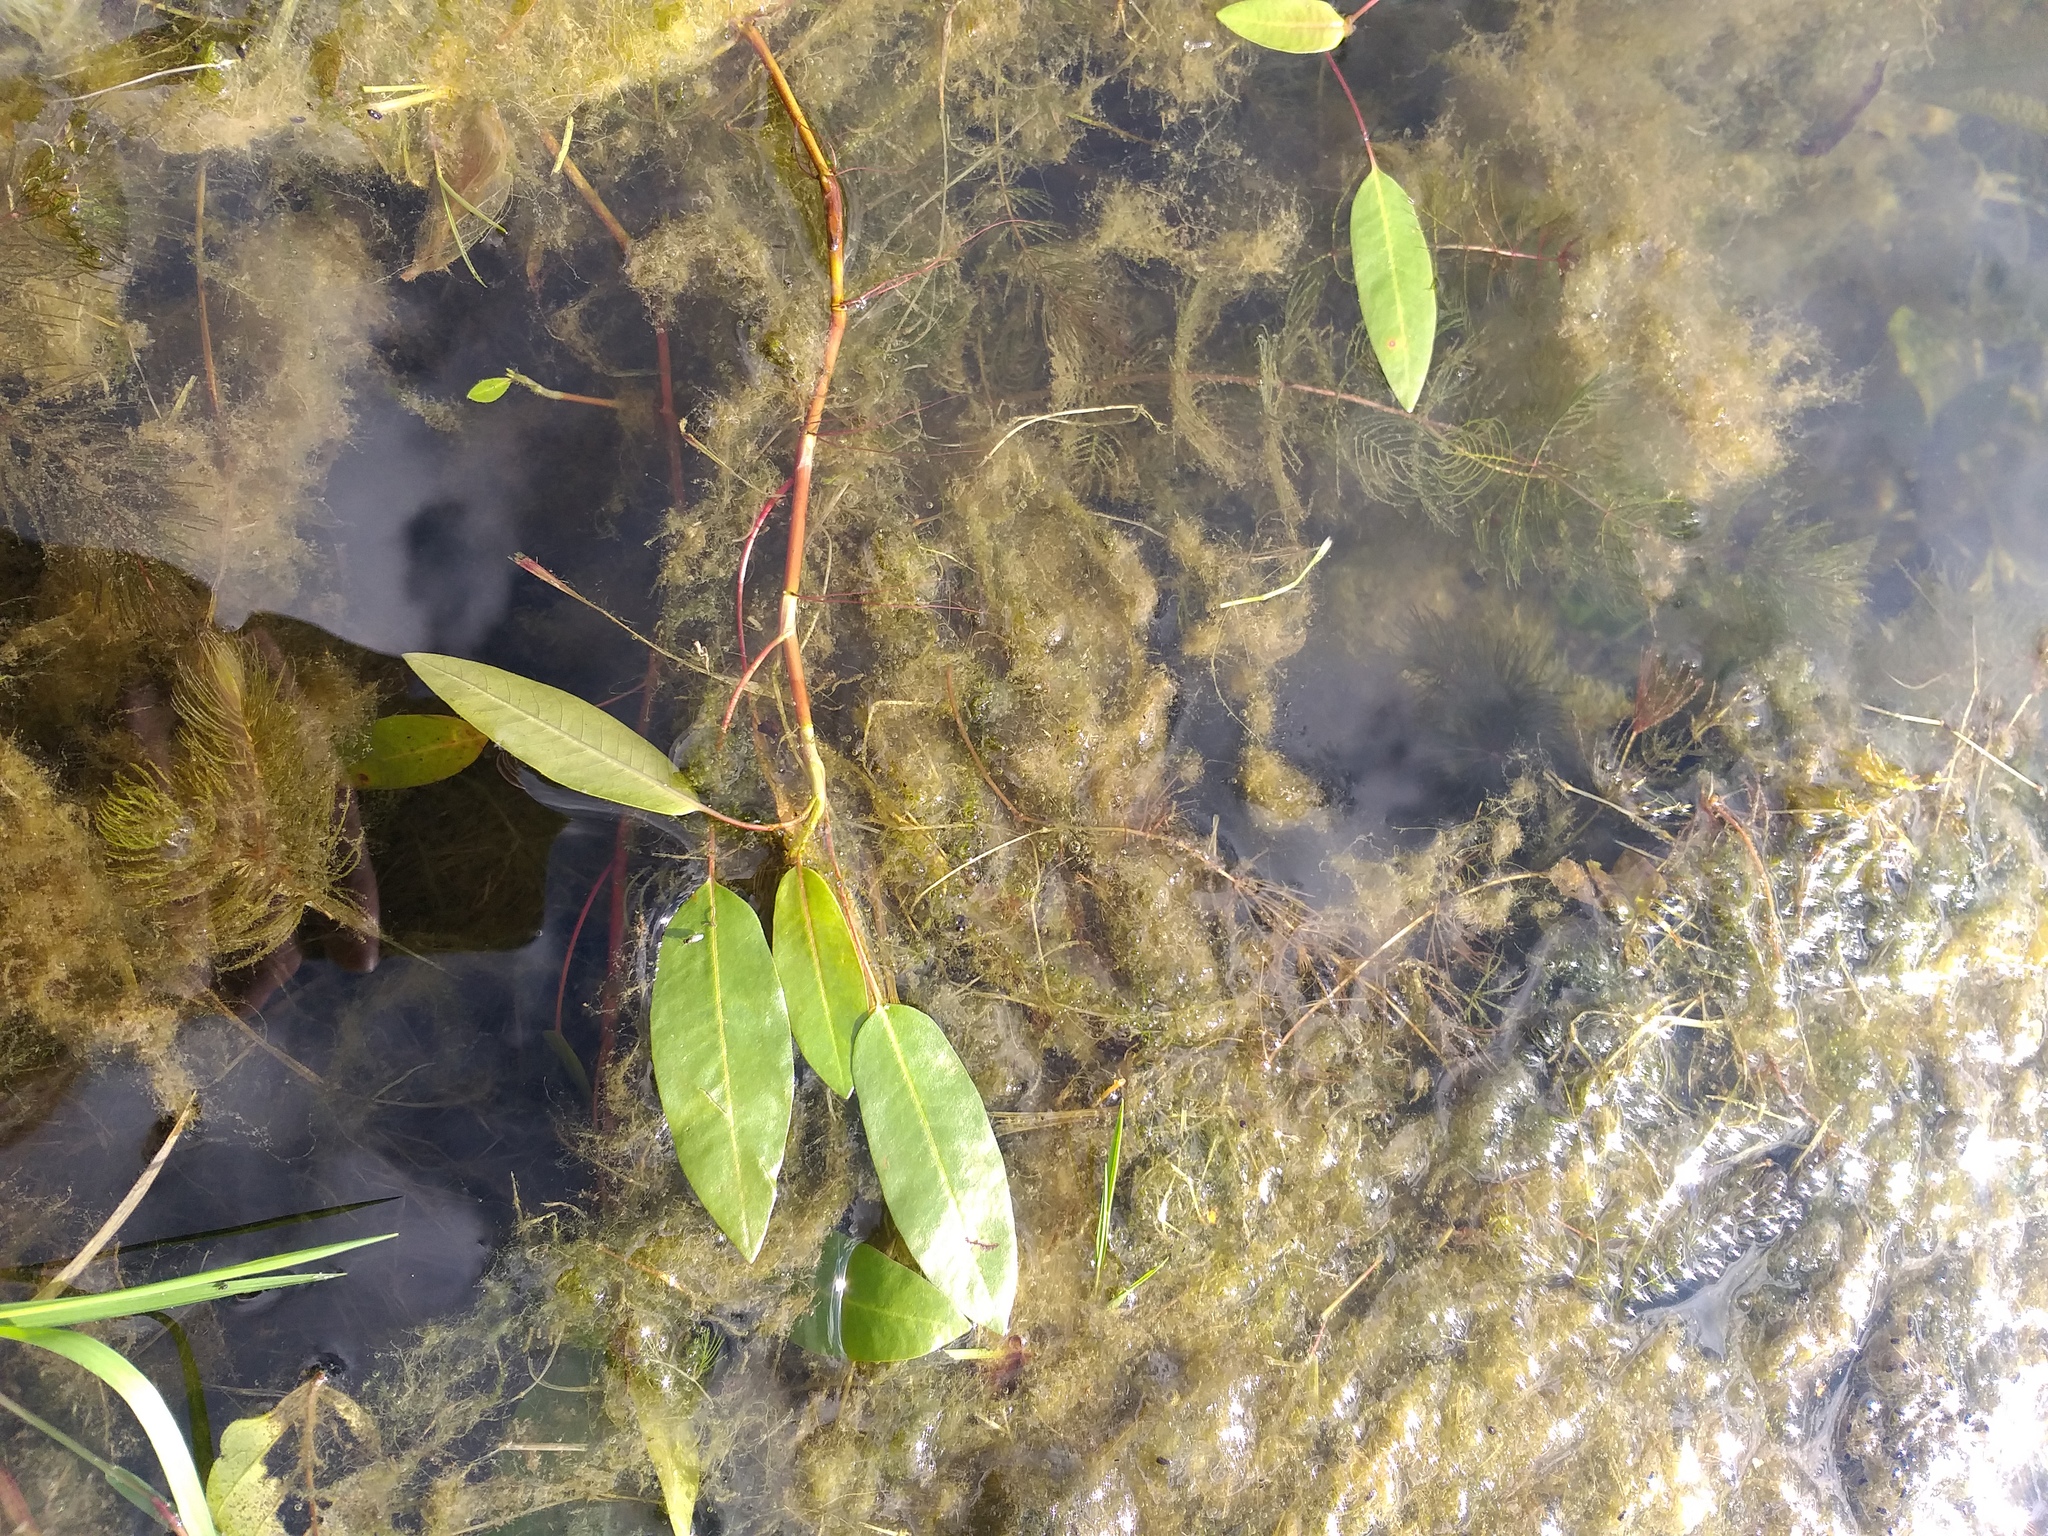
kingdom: Plantae
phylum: Tracheophyta
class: Magnoliopsida
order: Caryophyllales
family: Polygonaceae
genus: Persicaria
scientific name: Persicaria amphibia
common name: Amphibious bistort
